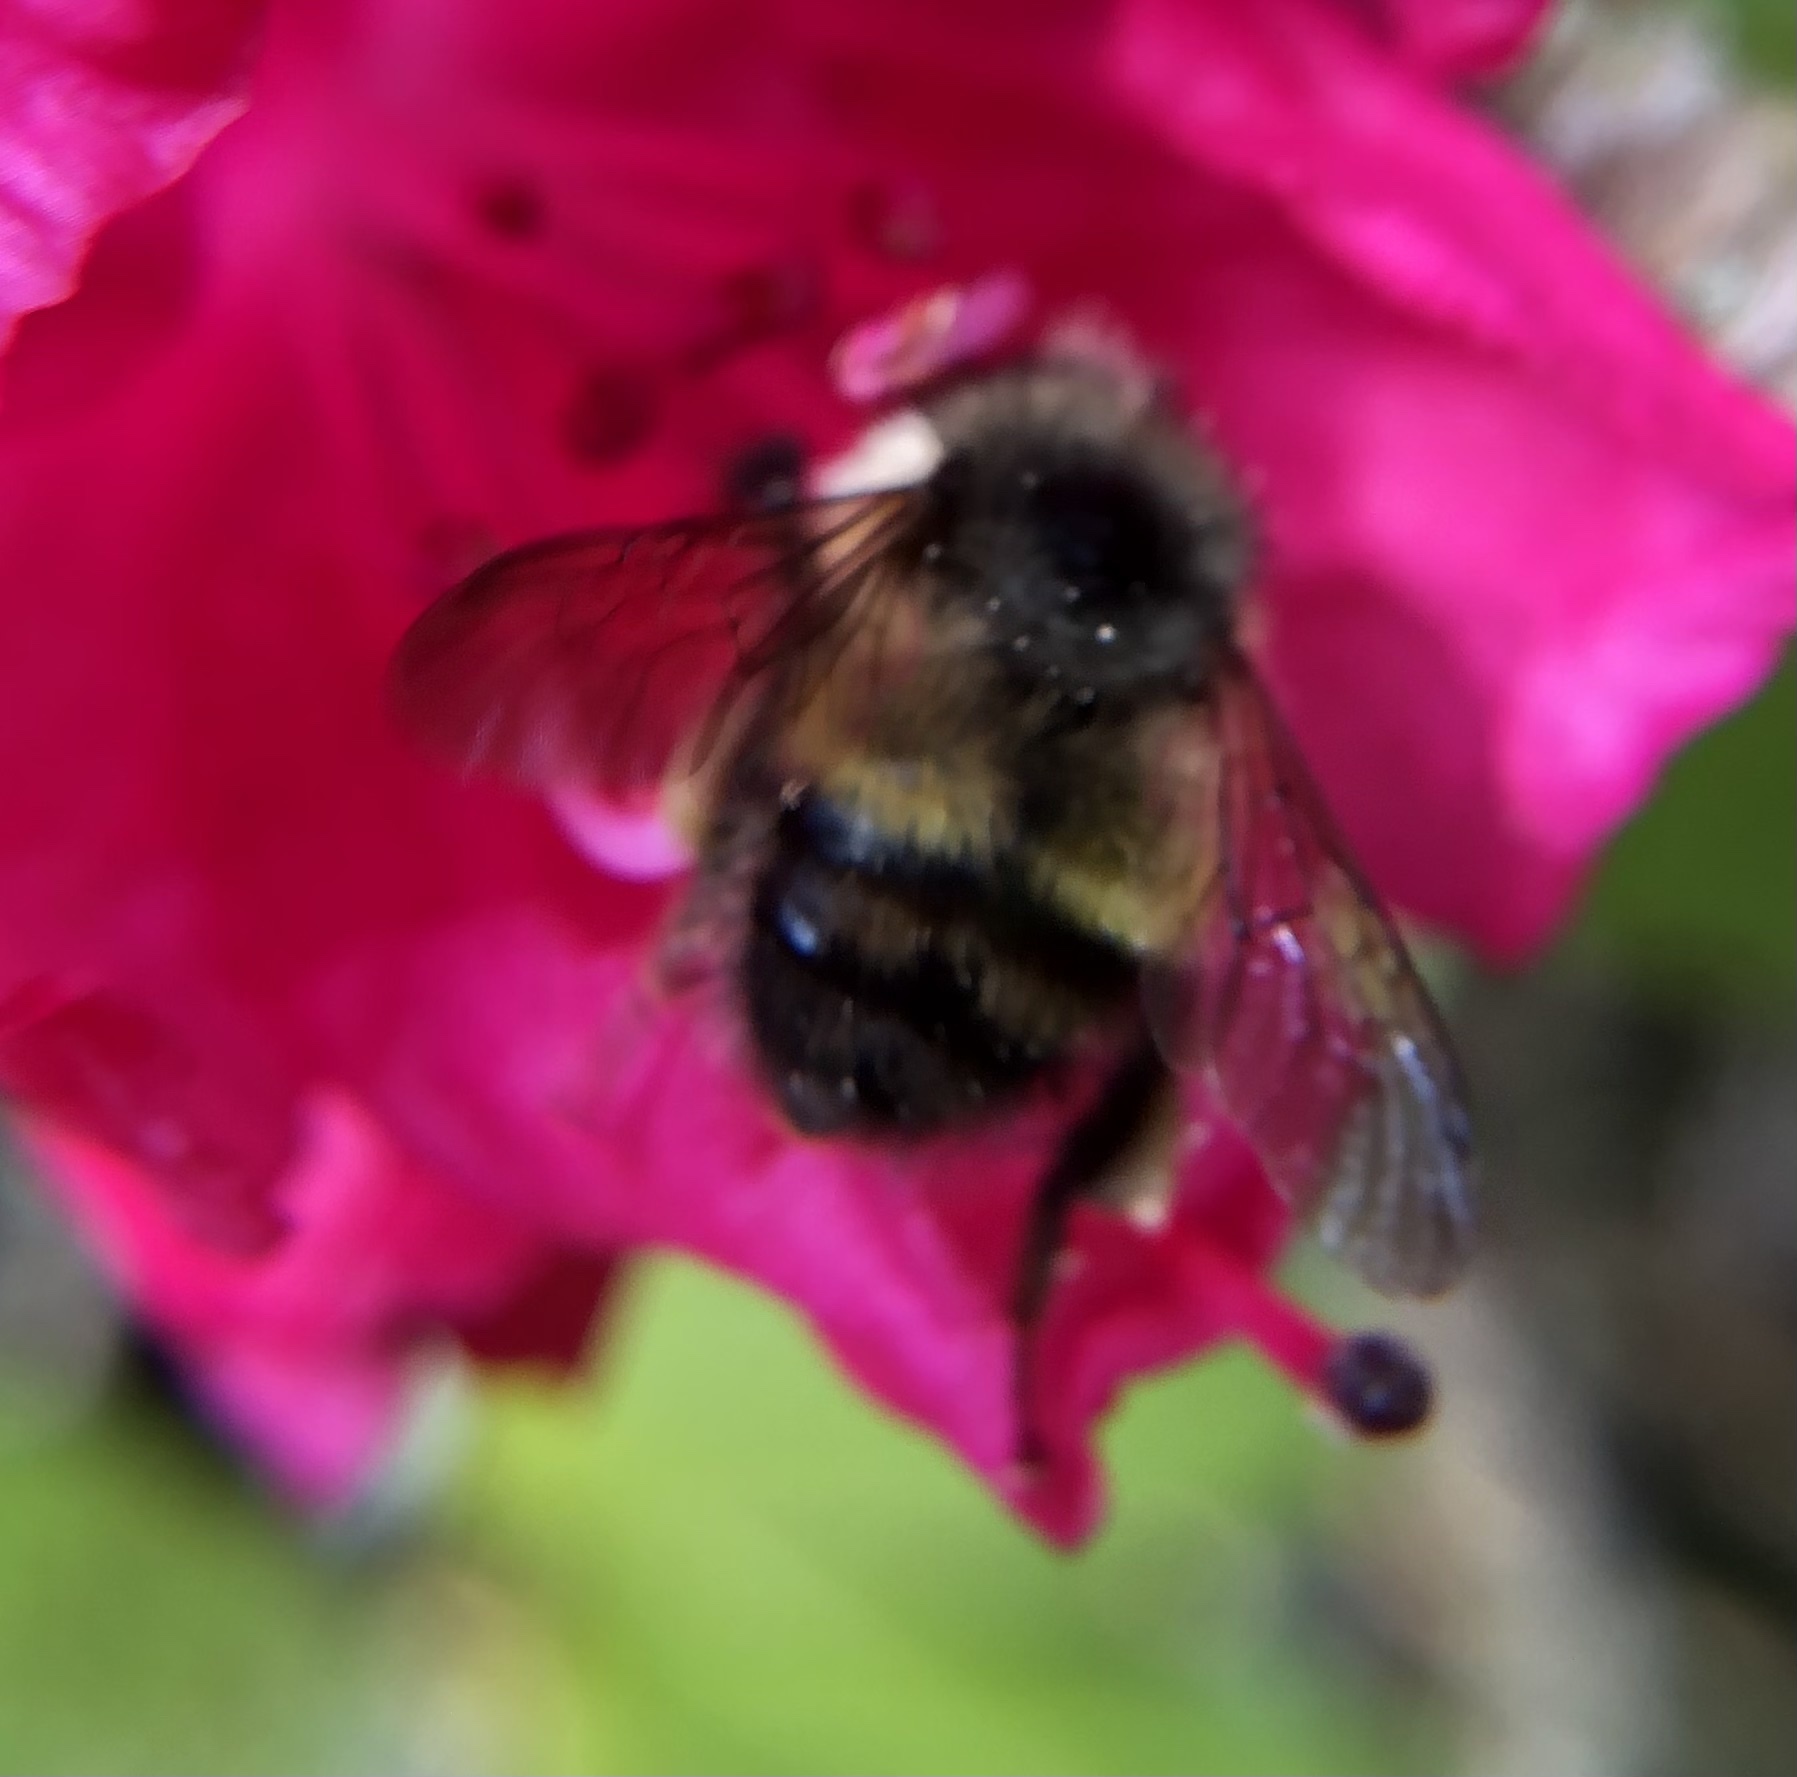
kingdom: Animalia
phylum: Arthropoda
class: Insecta
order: Hymenoptera
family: Apidae
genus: Bombus
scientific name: Bombus flavifrons
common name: Yellow head bumble bee
